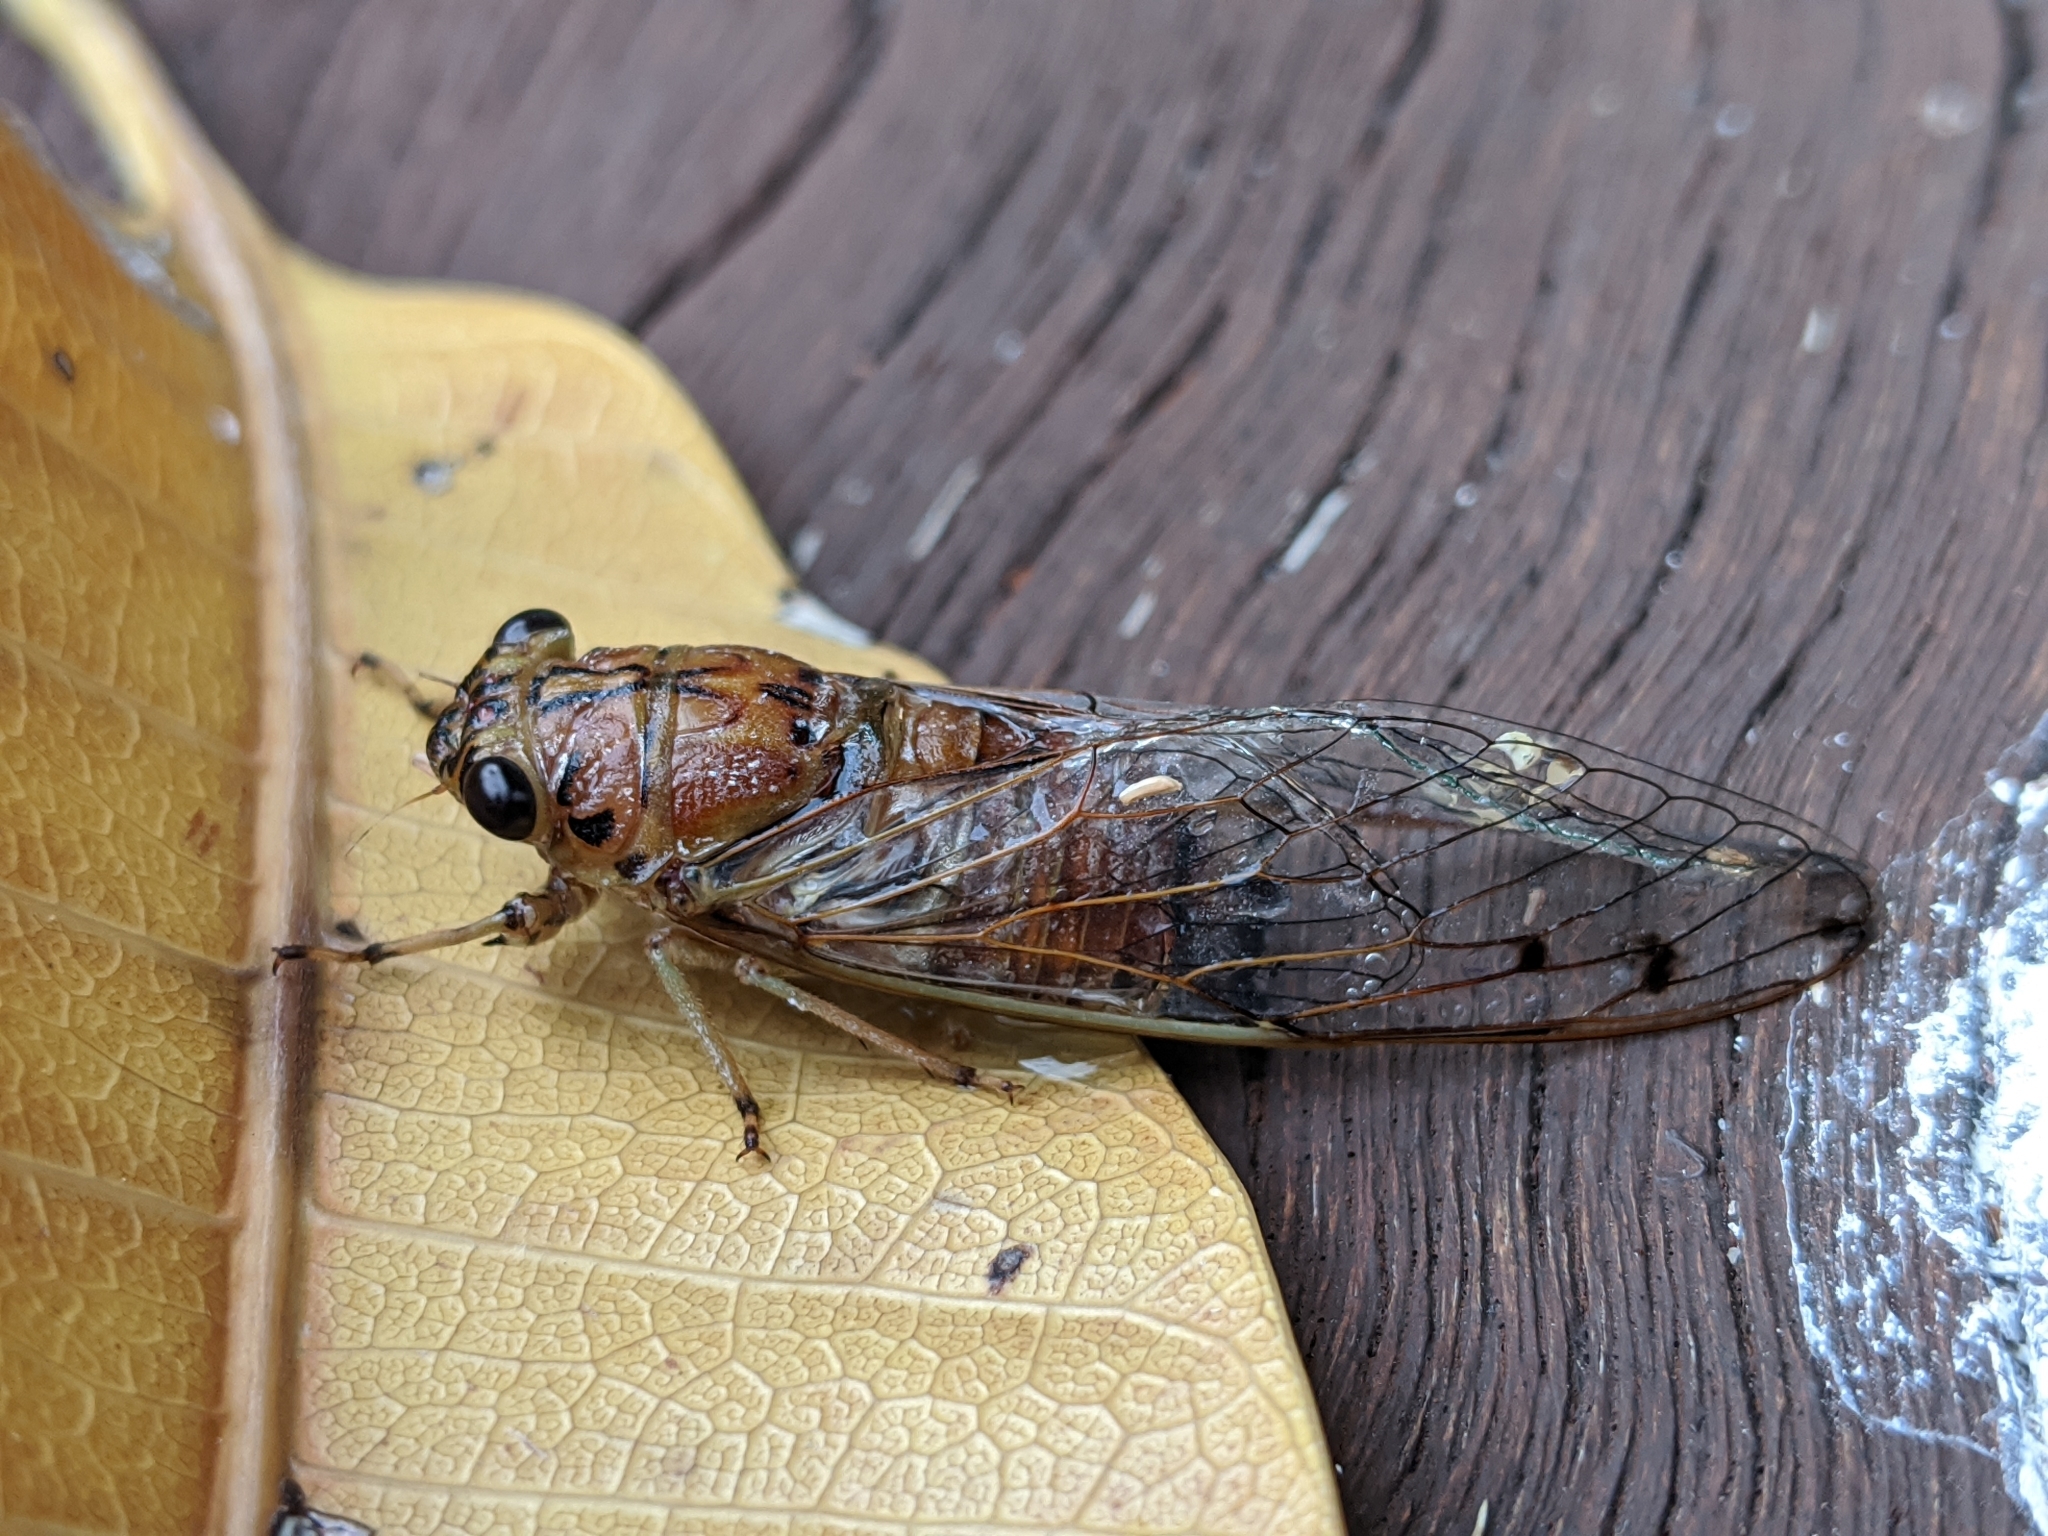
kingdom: Animalia
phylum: Arthropoda
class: Insecta
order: Hemiptera
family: Cicadidae
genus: Tamasa
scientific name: Tamasa tristigma
